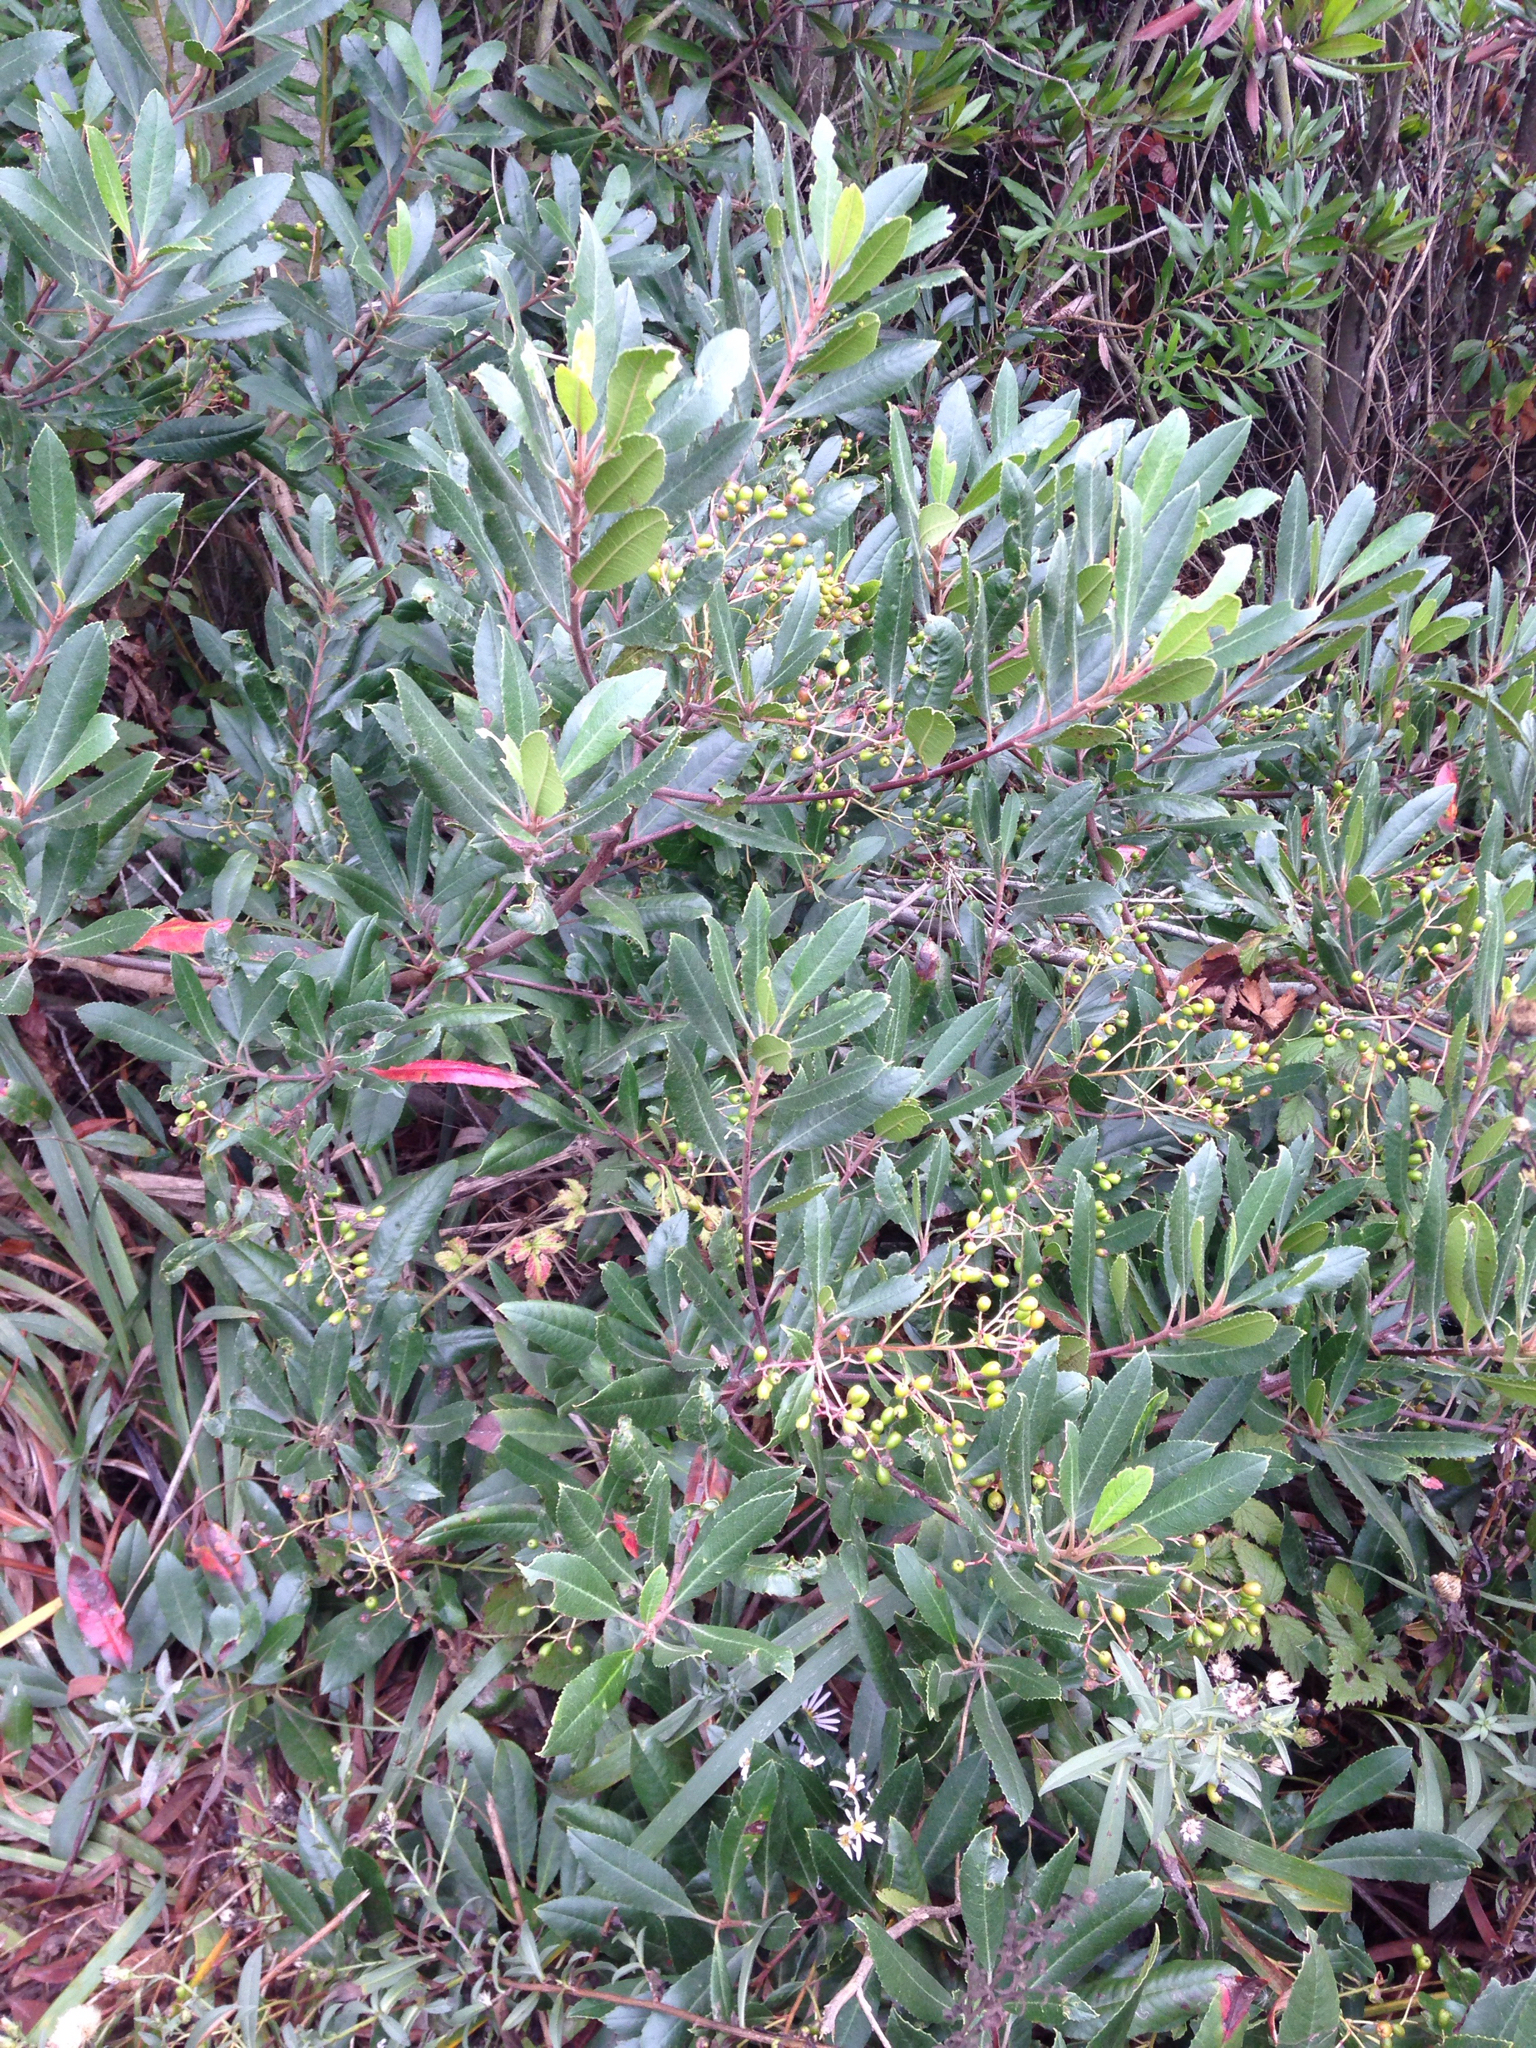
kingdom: Plantae
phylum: Tracheophyta
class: Magnoliopsida
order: Rosales
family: Rosaceae
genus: Heteromeles
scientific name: Heteromeles arbutifolia
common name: California-holly
